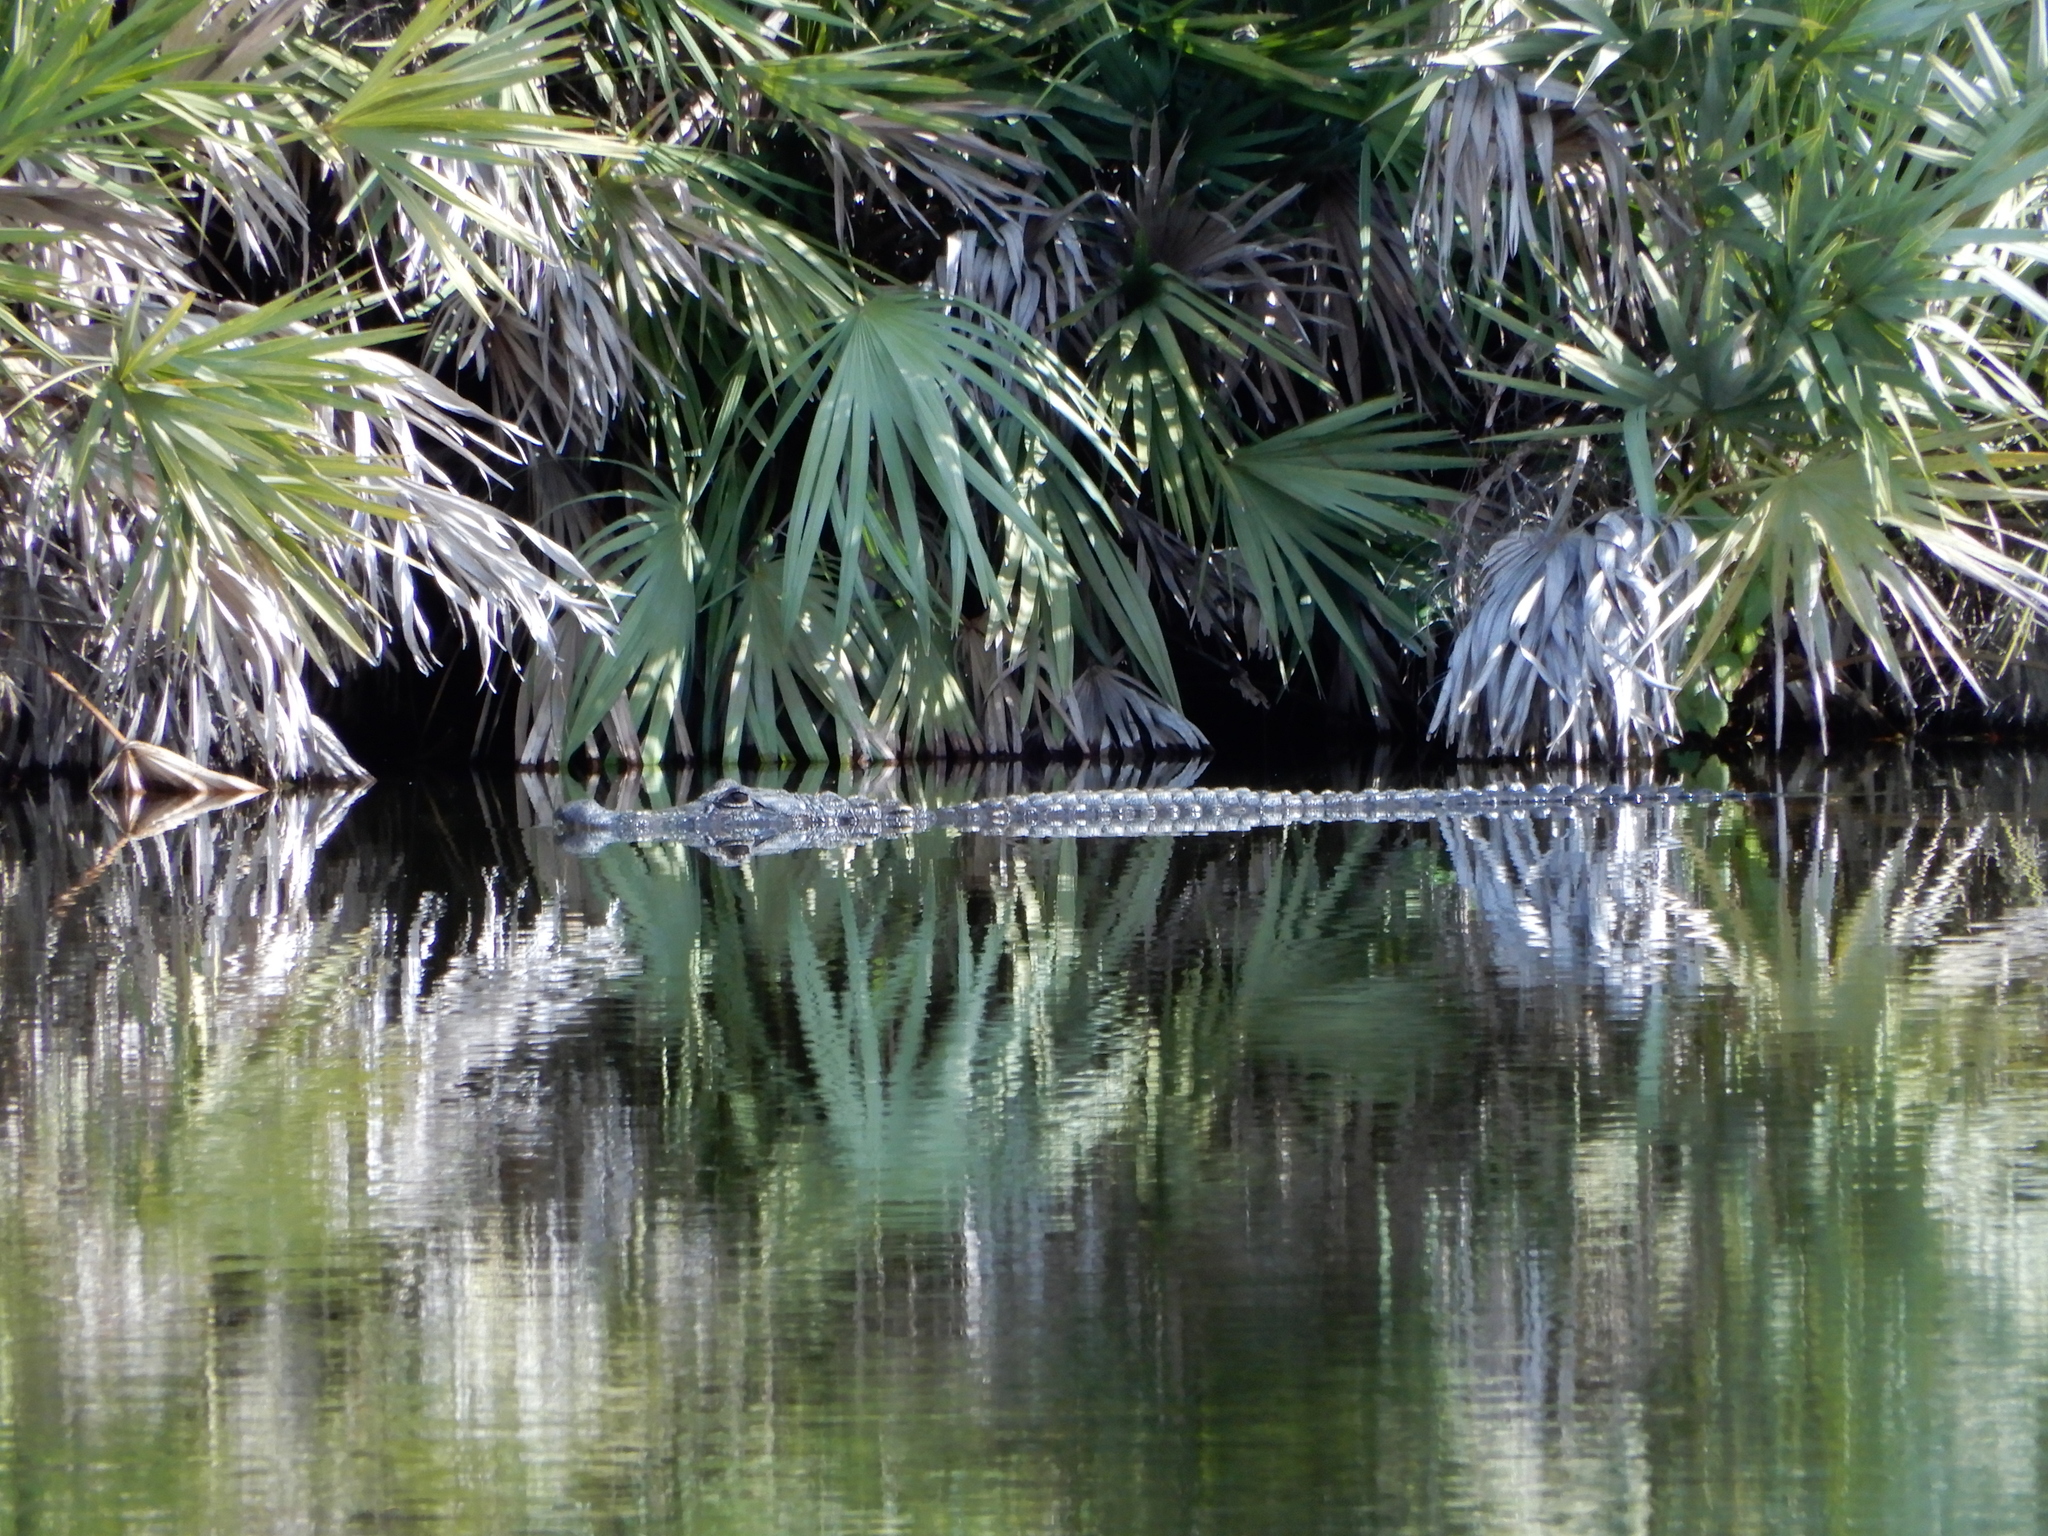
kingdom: Animalia
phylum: Chordata
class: Crocodylia
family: Alligatoridae
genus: Alligator
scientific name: Alligator mississippiensis
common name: American alligator
